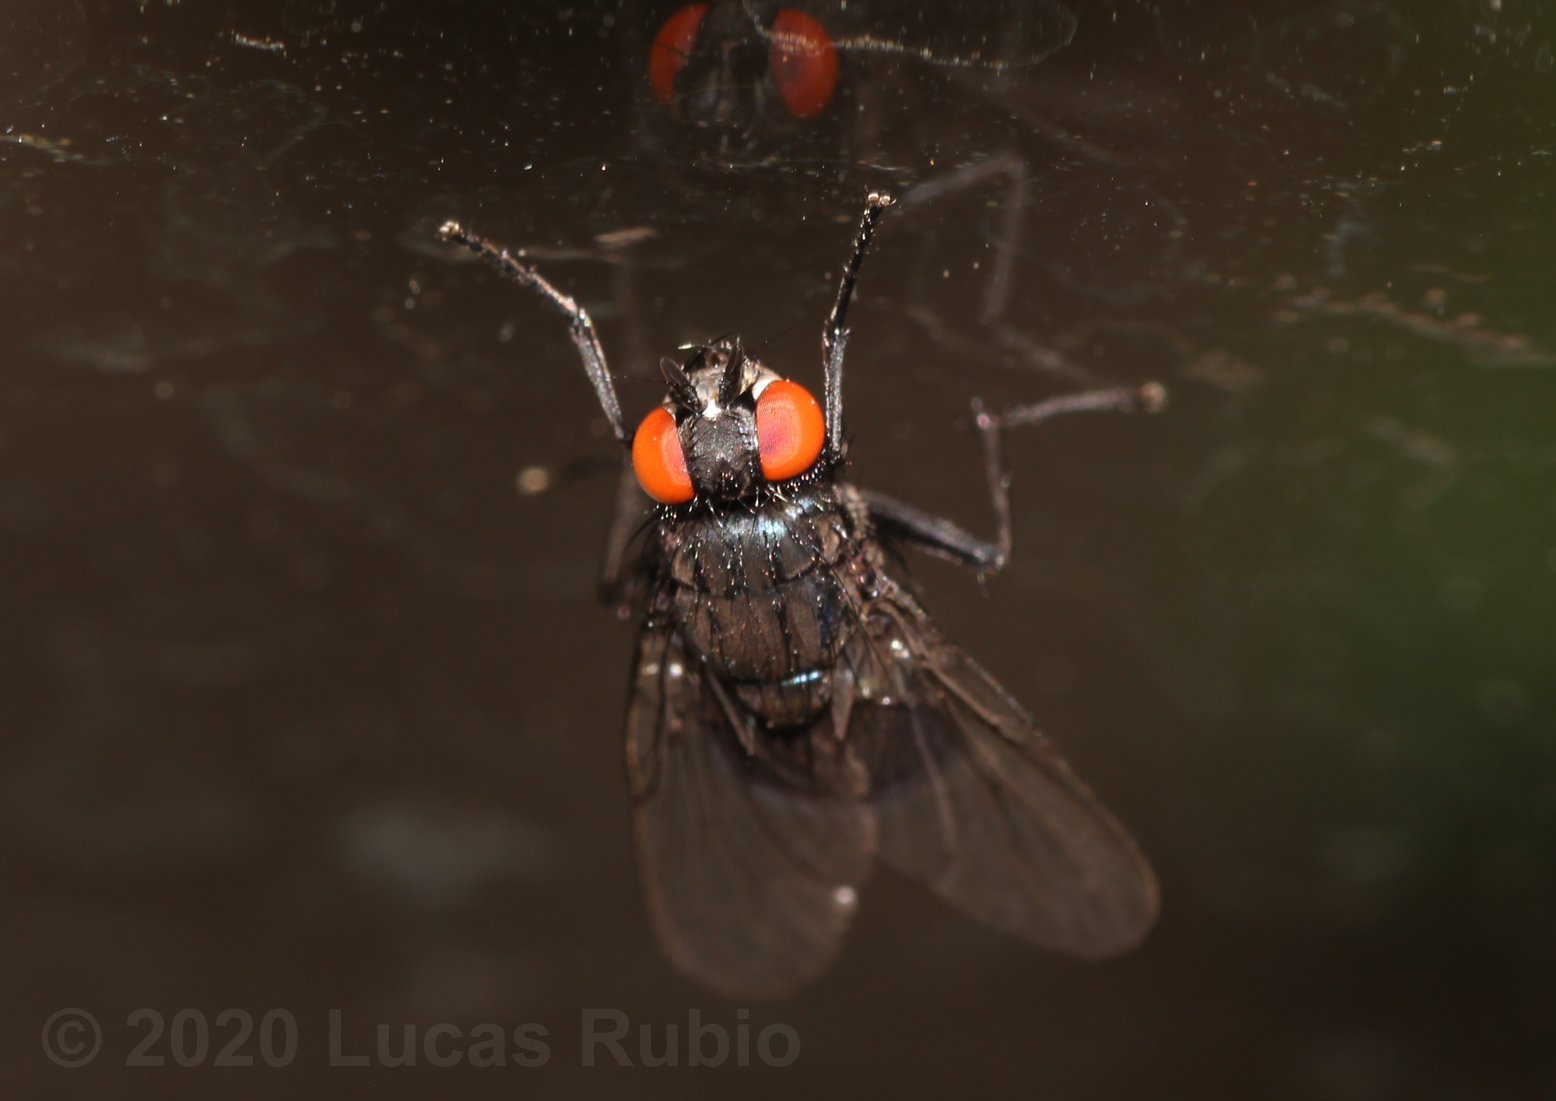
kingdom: Animalia
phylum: Arthropoda
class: Insecta
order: Diptera
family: Muscidae
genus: Psilochaeta
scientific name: Psilochaeta chalybea
